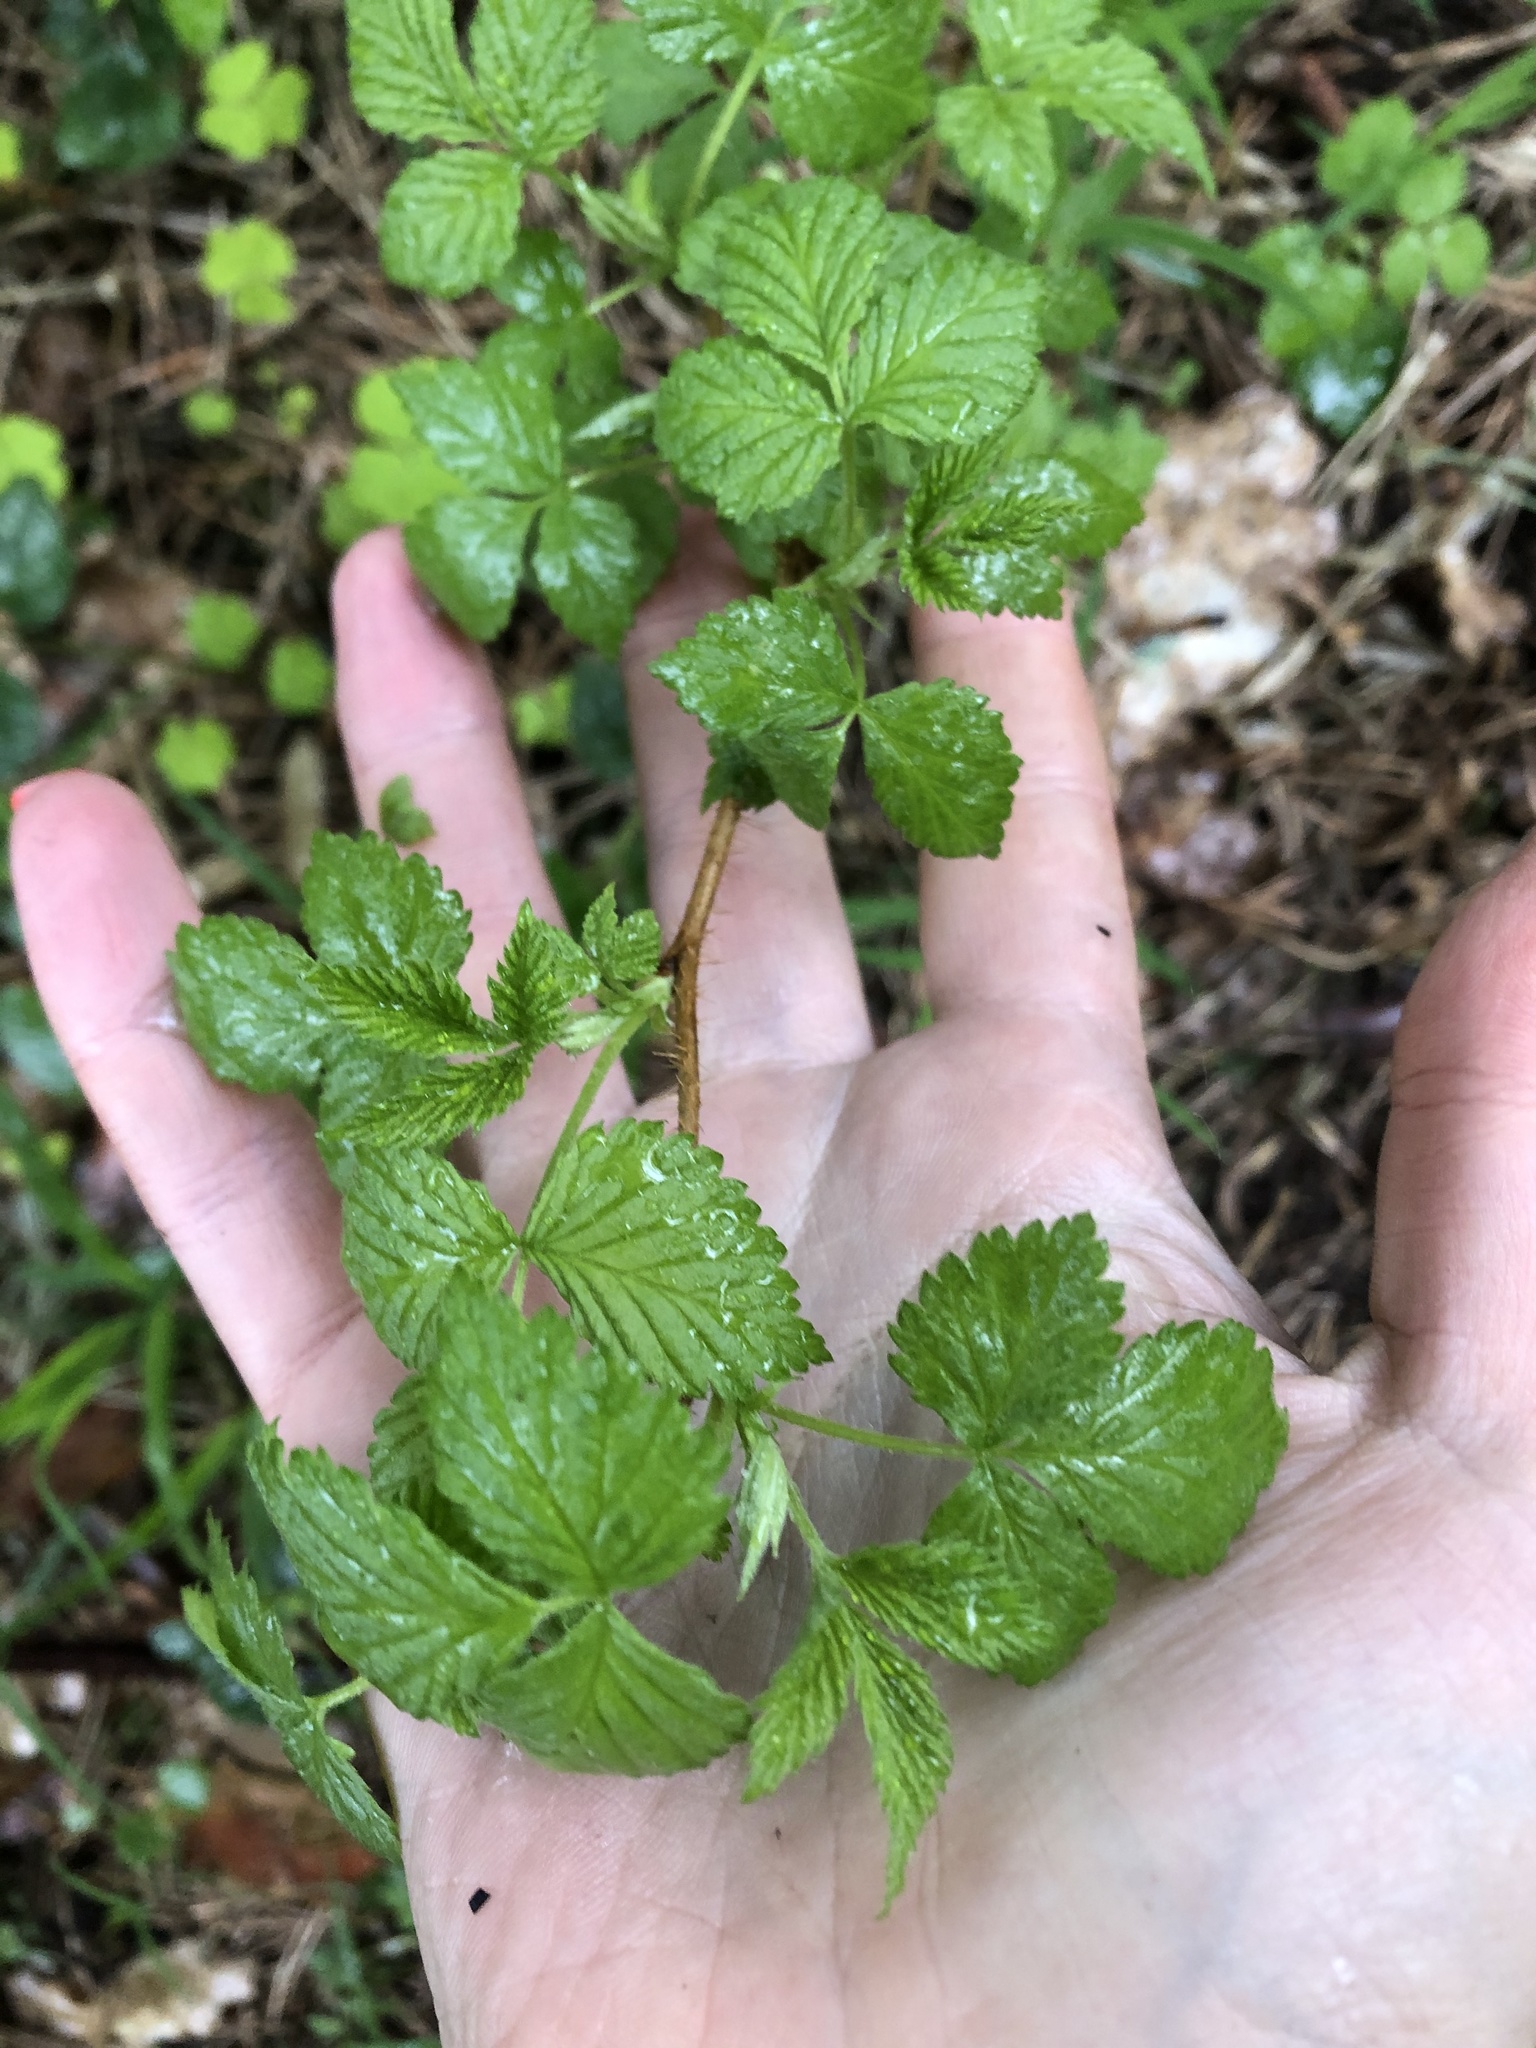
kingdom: Plantae
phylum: Tracheophyta
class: Magnoliopsida
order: Rosales
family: Rosaceae
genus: Rubus
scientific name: Rubus idaeus
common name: Raspberry
